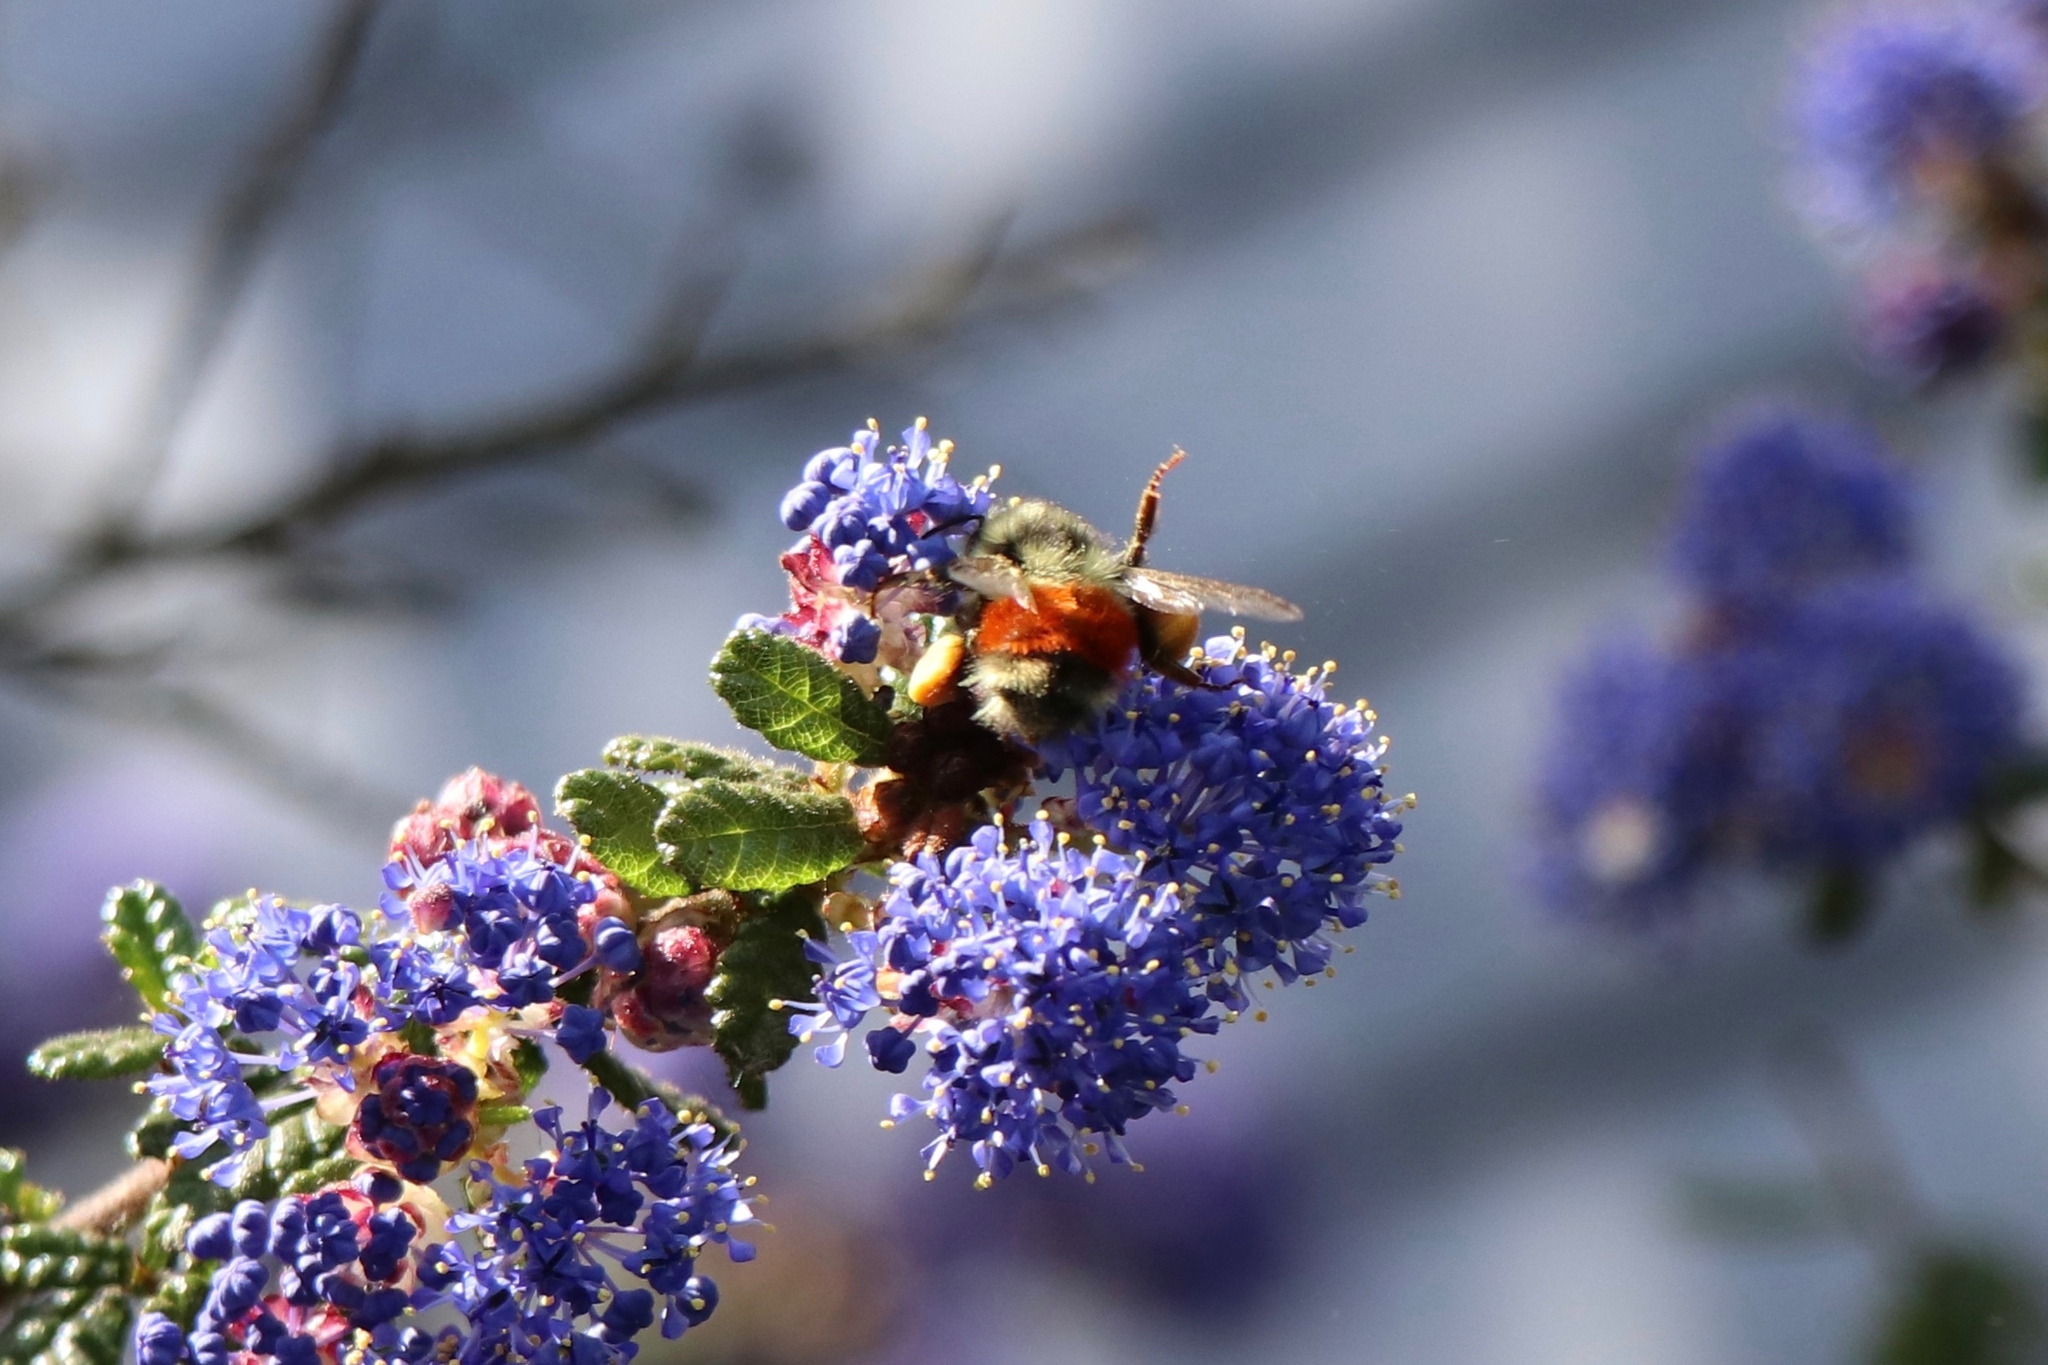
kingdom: Animalia
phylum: Arthropoda
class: Insecta
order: Hymenoptera
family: Apidae
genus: Bombus
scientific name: Bombus melanopygus
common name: Black tail bumble bee
